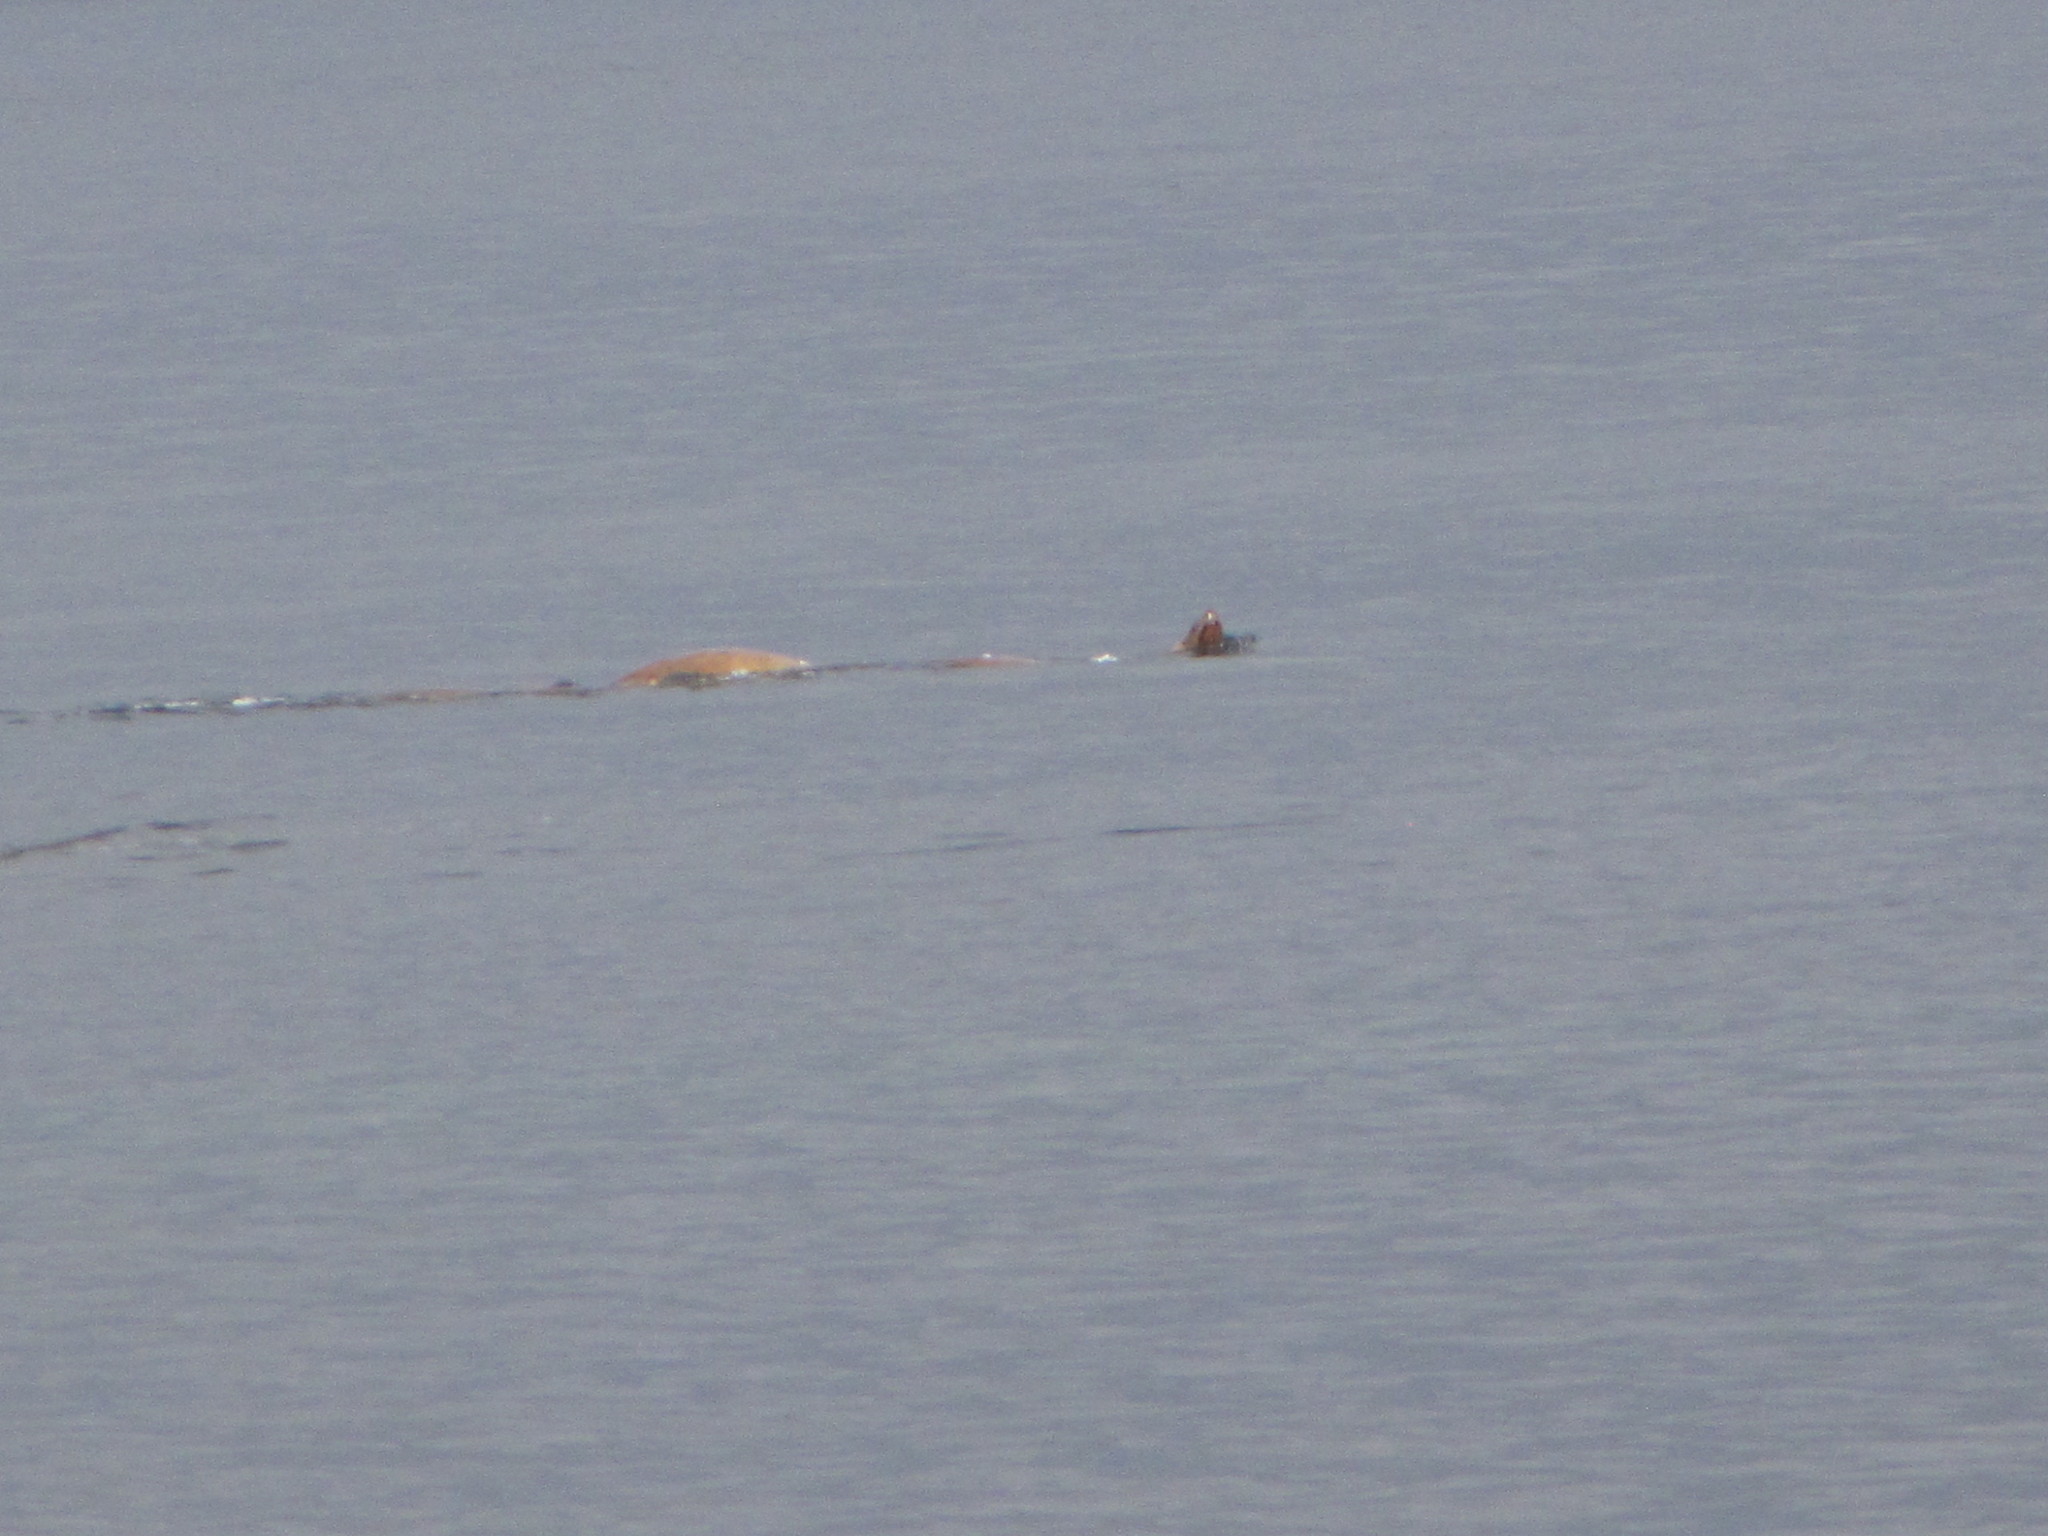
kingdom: Animalia
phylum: Chordata
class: Mammalia
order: Carnivora
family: Otariidae
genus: Eumetopias
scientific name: Eumetopias jubatus
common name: Steller sea lion
